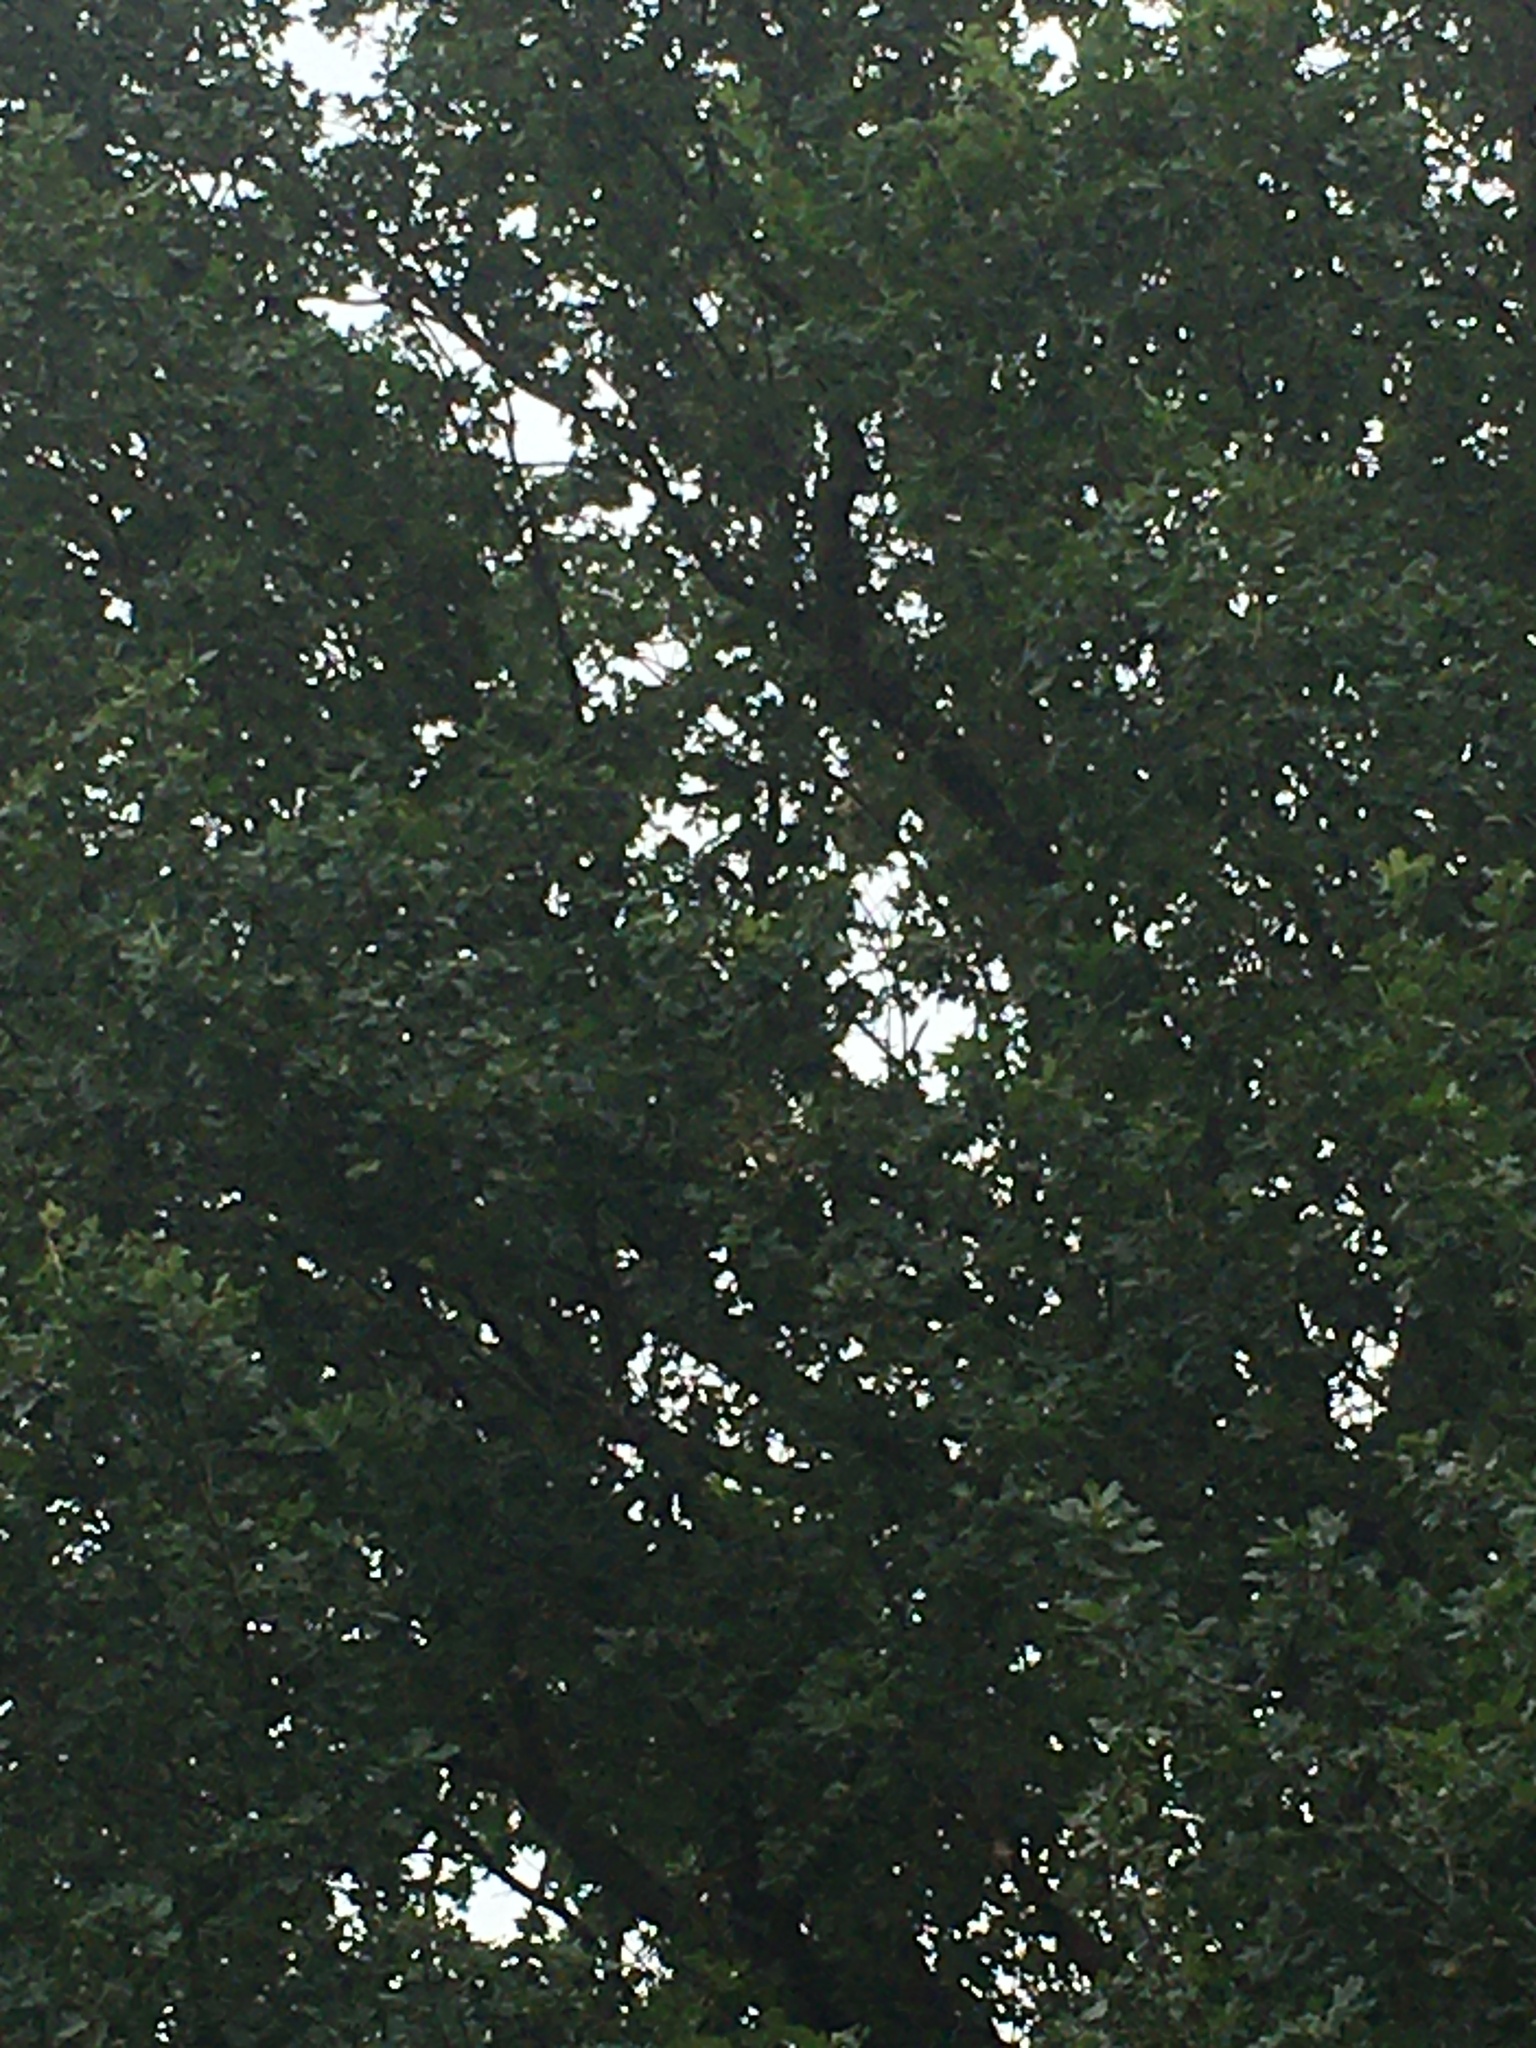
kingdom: Animalia
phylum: Arthropoda
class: Insecta
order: Hymenoptera
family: Vespidae
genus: Vespa
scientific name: Vespa velutina
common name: Asian hornet
